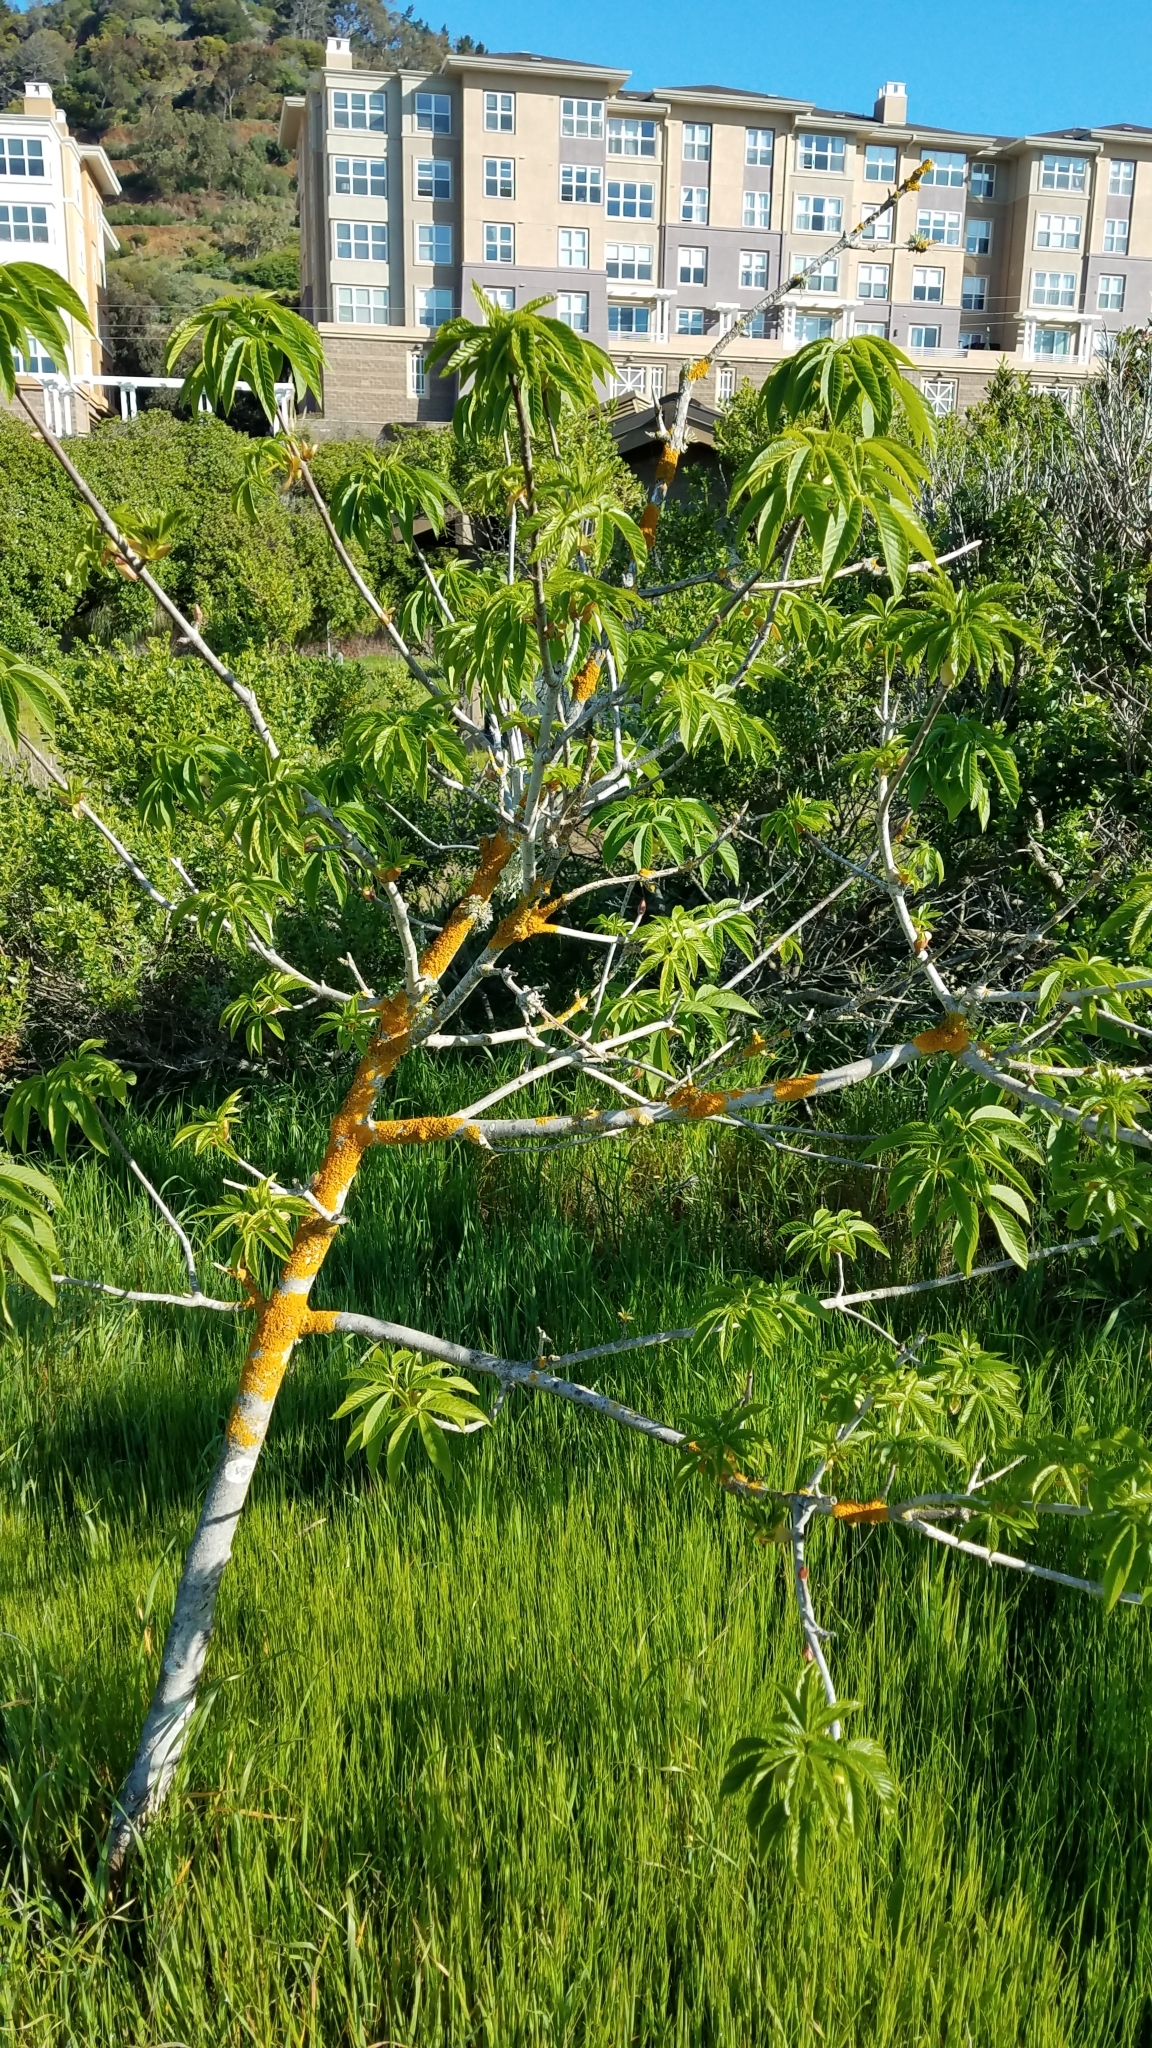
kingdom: Plantae
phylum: Tracheophyta
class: Magnoliopsida
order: Sapindales
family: Sapindaceae
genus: Aesculus
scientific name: Aesculus californica
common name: California buckeye
